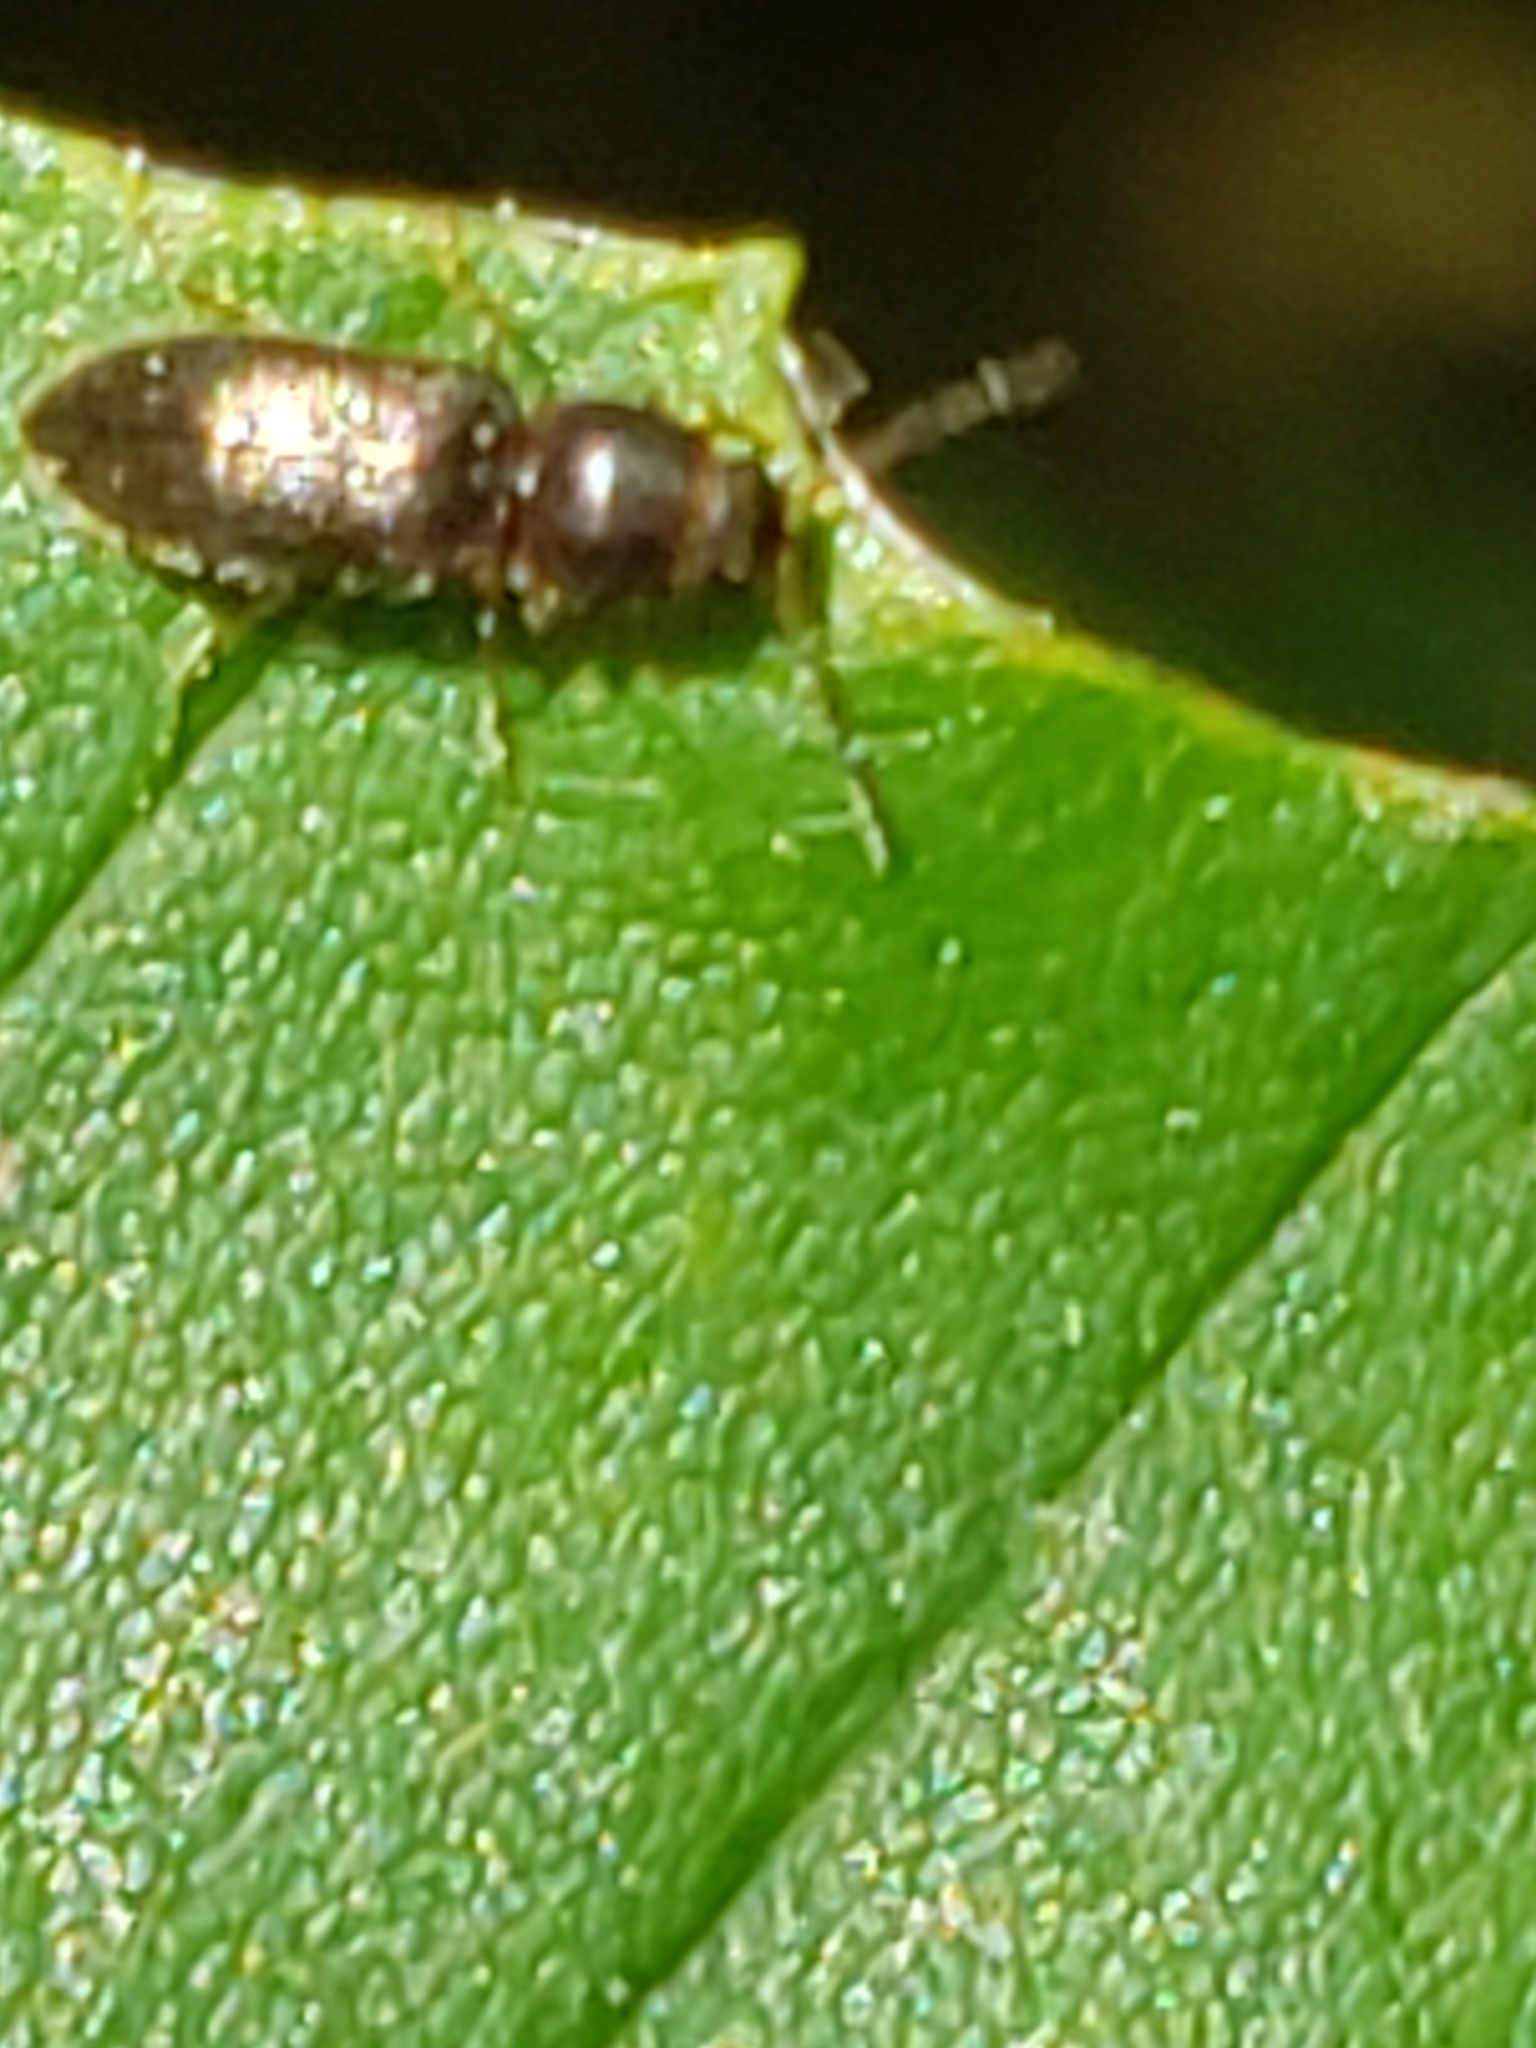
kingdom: Animalia
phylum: Arthropoda
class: Insecta
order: Coleoptera
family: Elateridae
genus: Tetralimonius
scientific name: Tetralimonius
